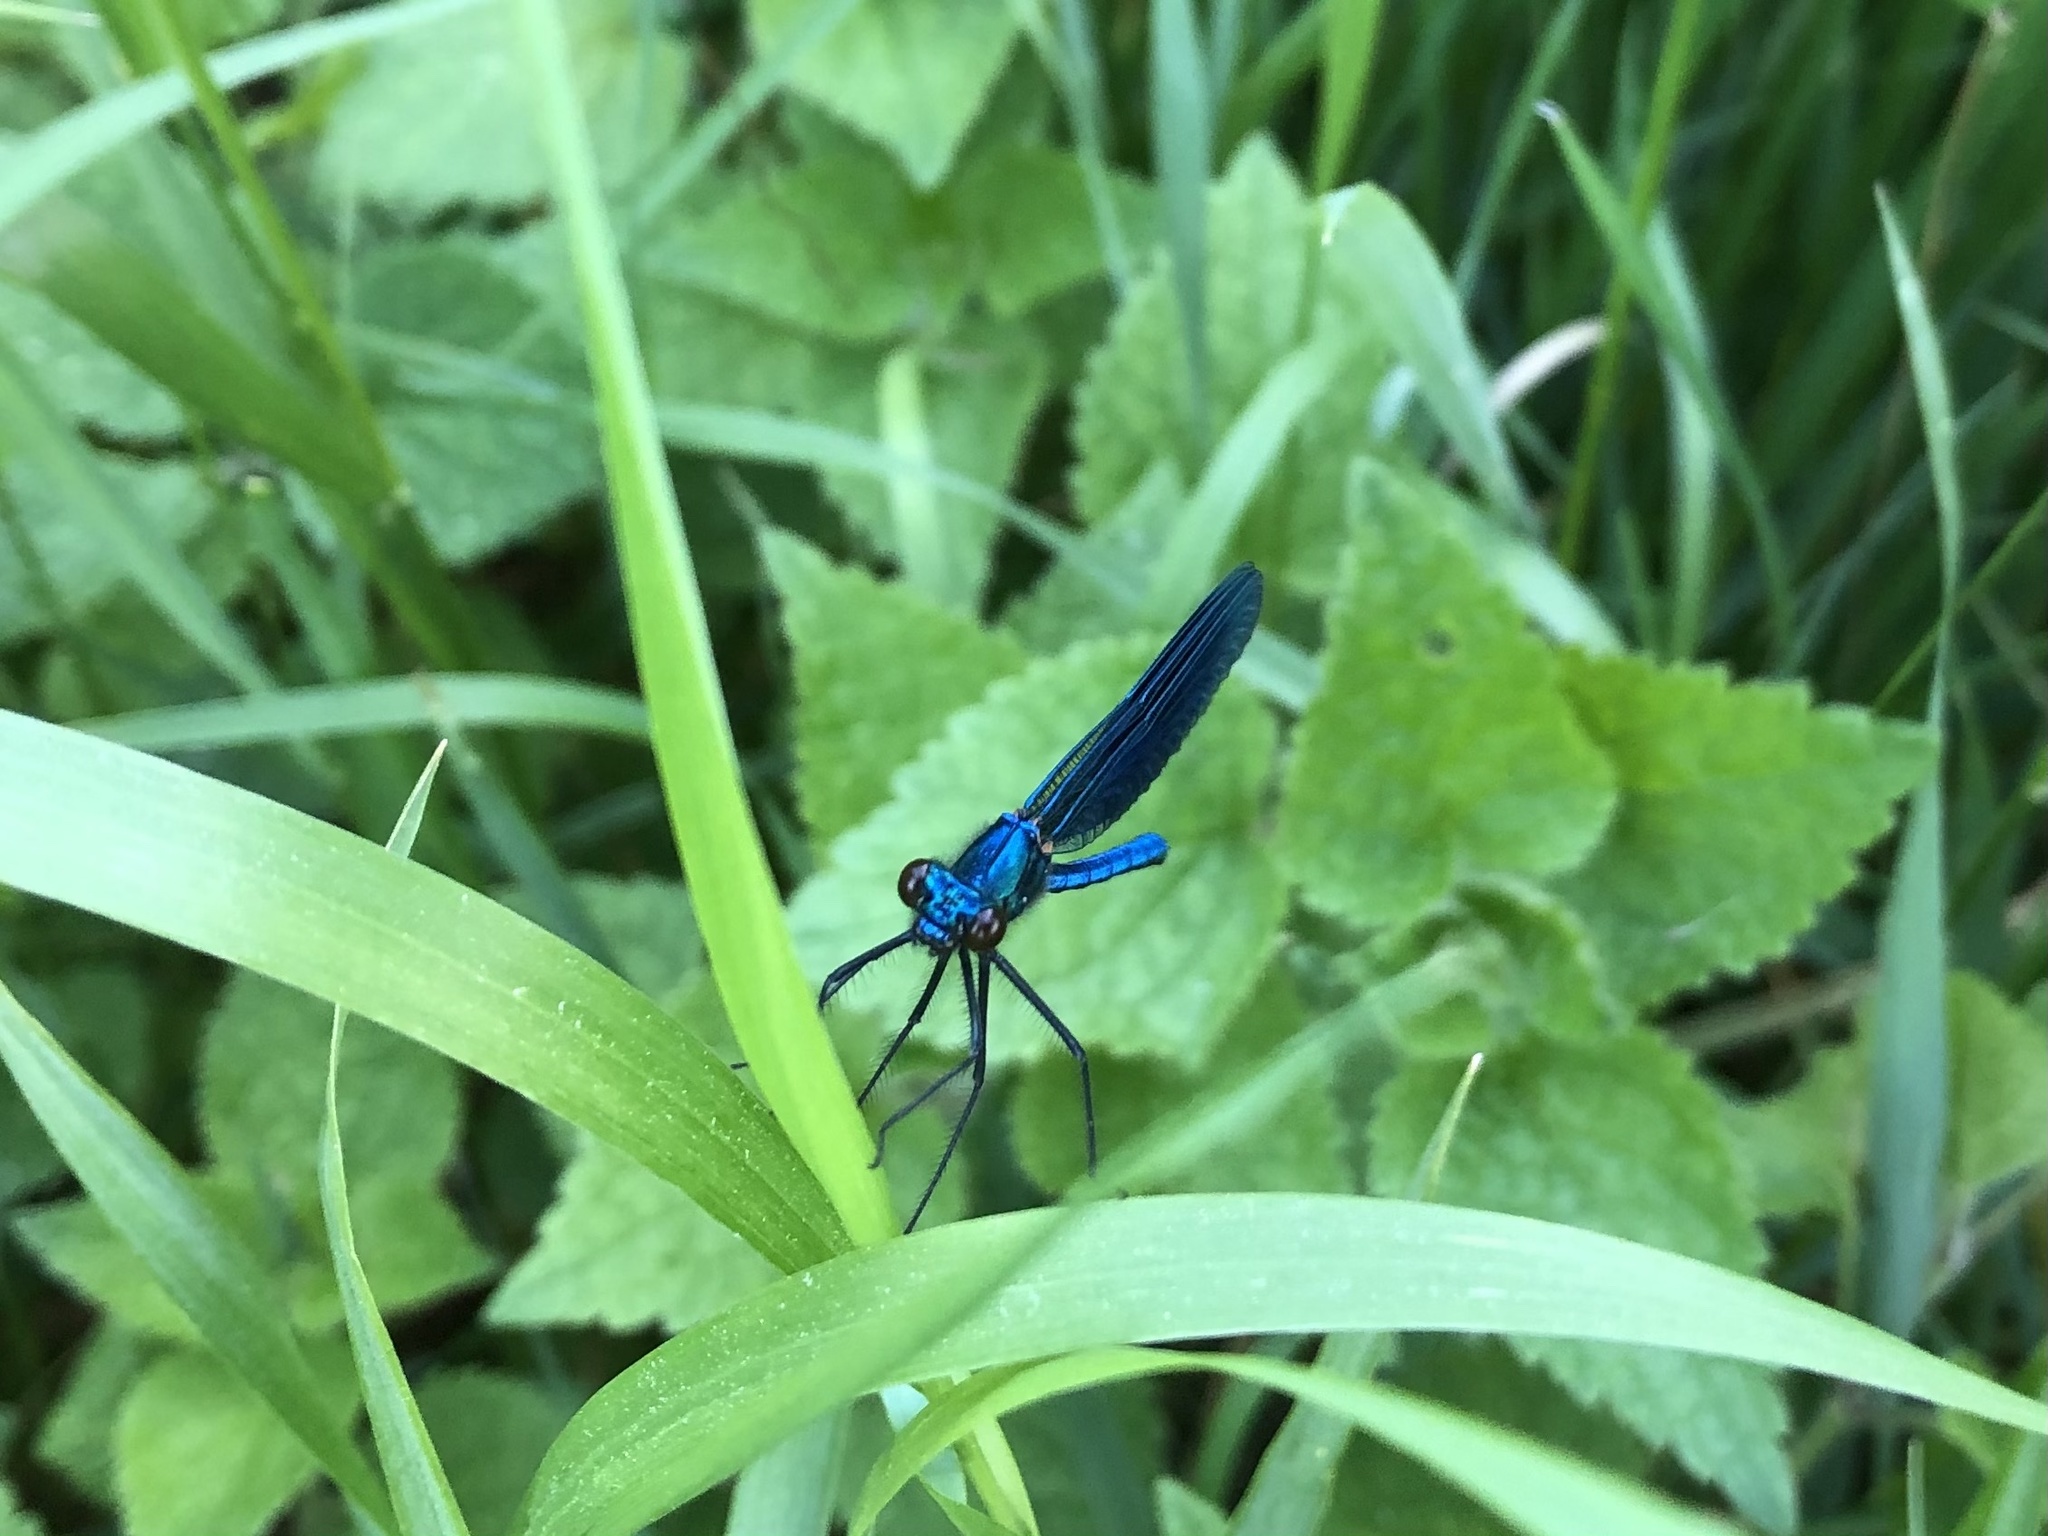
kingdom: Animalia
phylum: Arthropoda
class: Insecta
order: Odonata
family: Calopterygidae
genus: Calopteryx
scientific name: Calopteryx splendens
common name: Banded demoiselle
